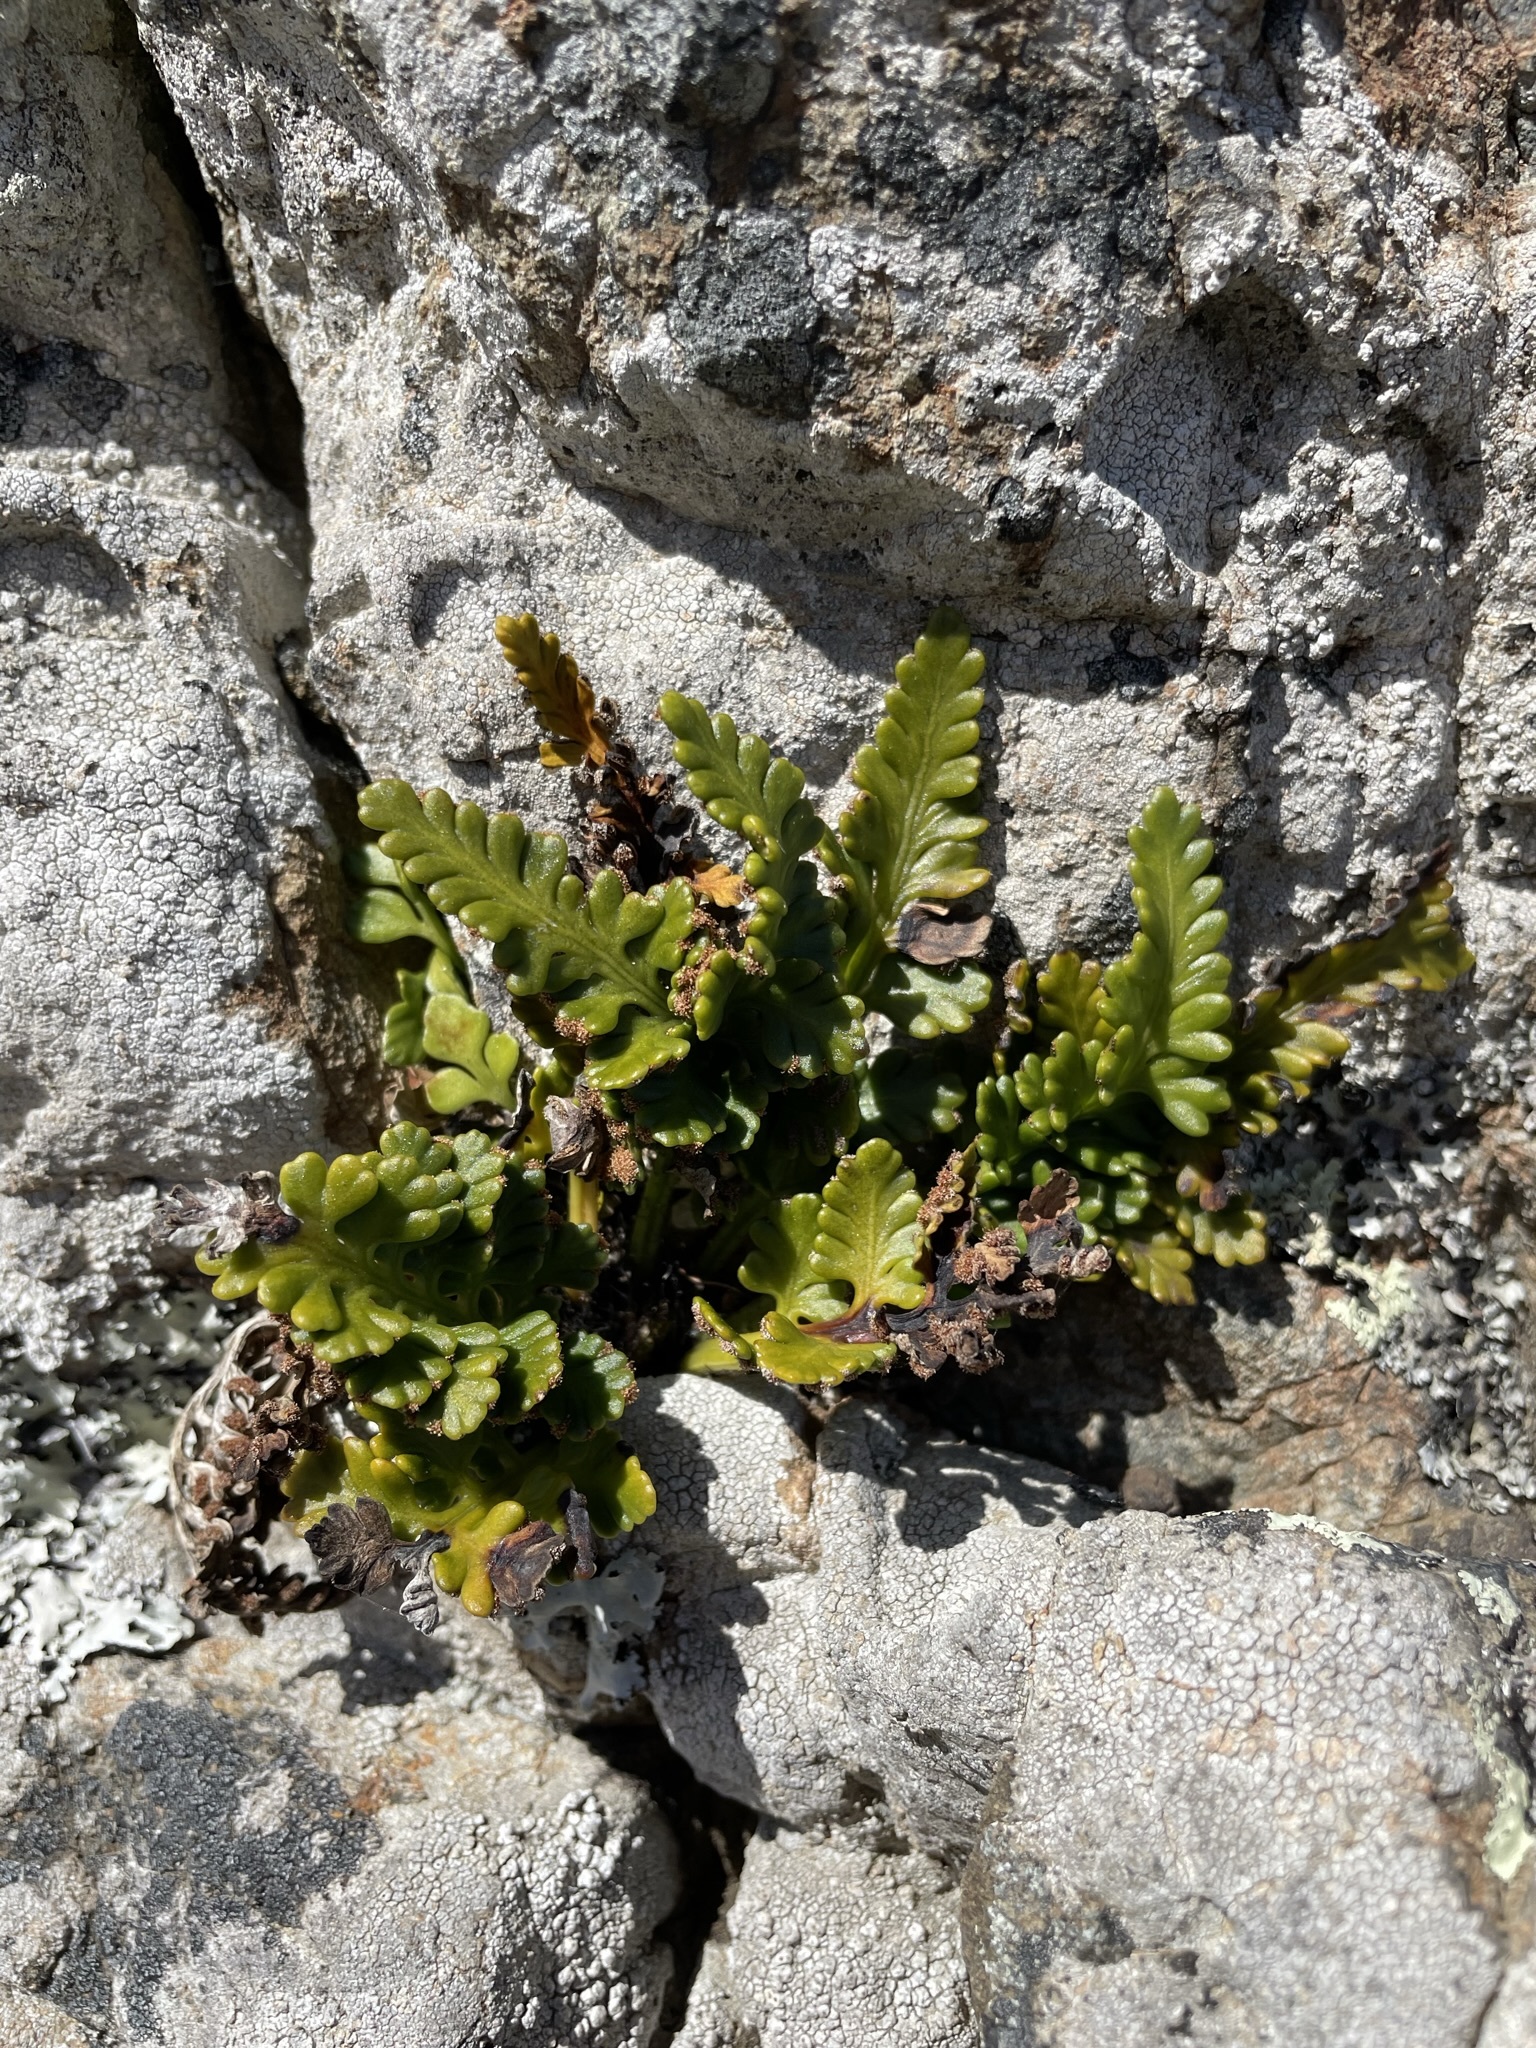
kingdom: Plantae
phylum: Tracheophyta
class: Polypodiopsida
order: Polypodiales
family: Aspleniaceae
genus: Asplenium
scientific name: Asplenium appendiculatum
